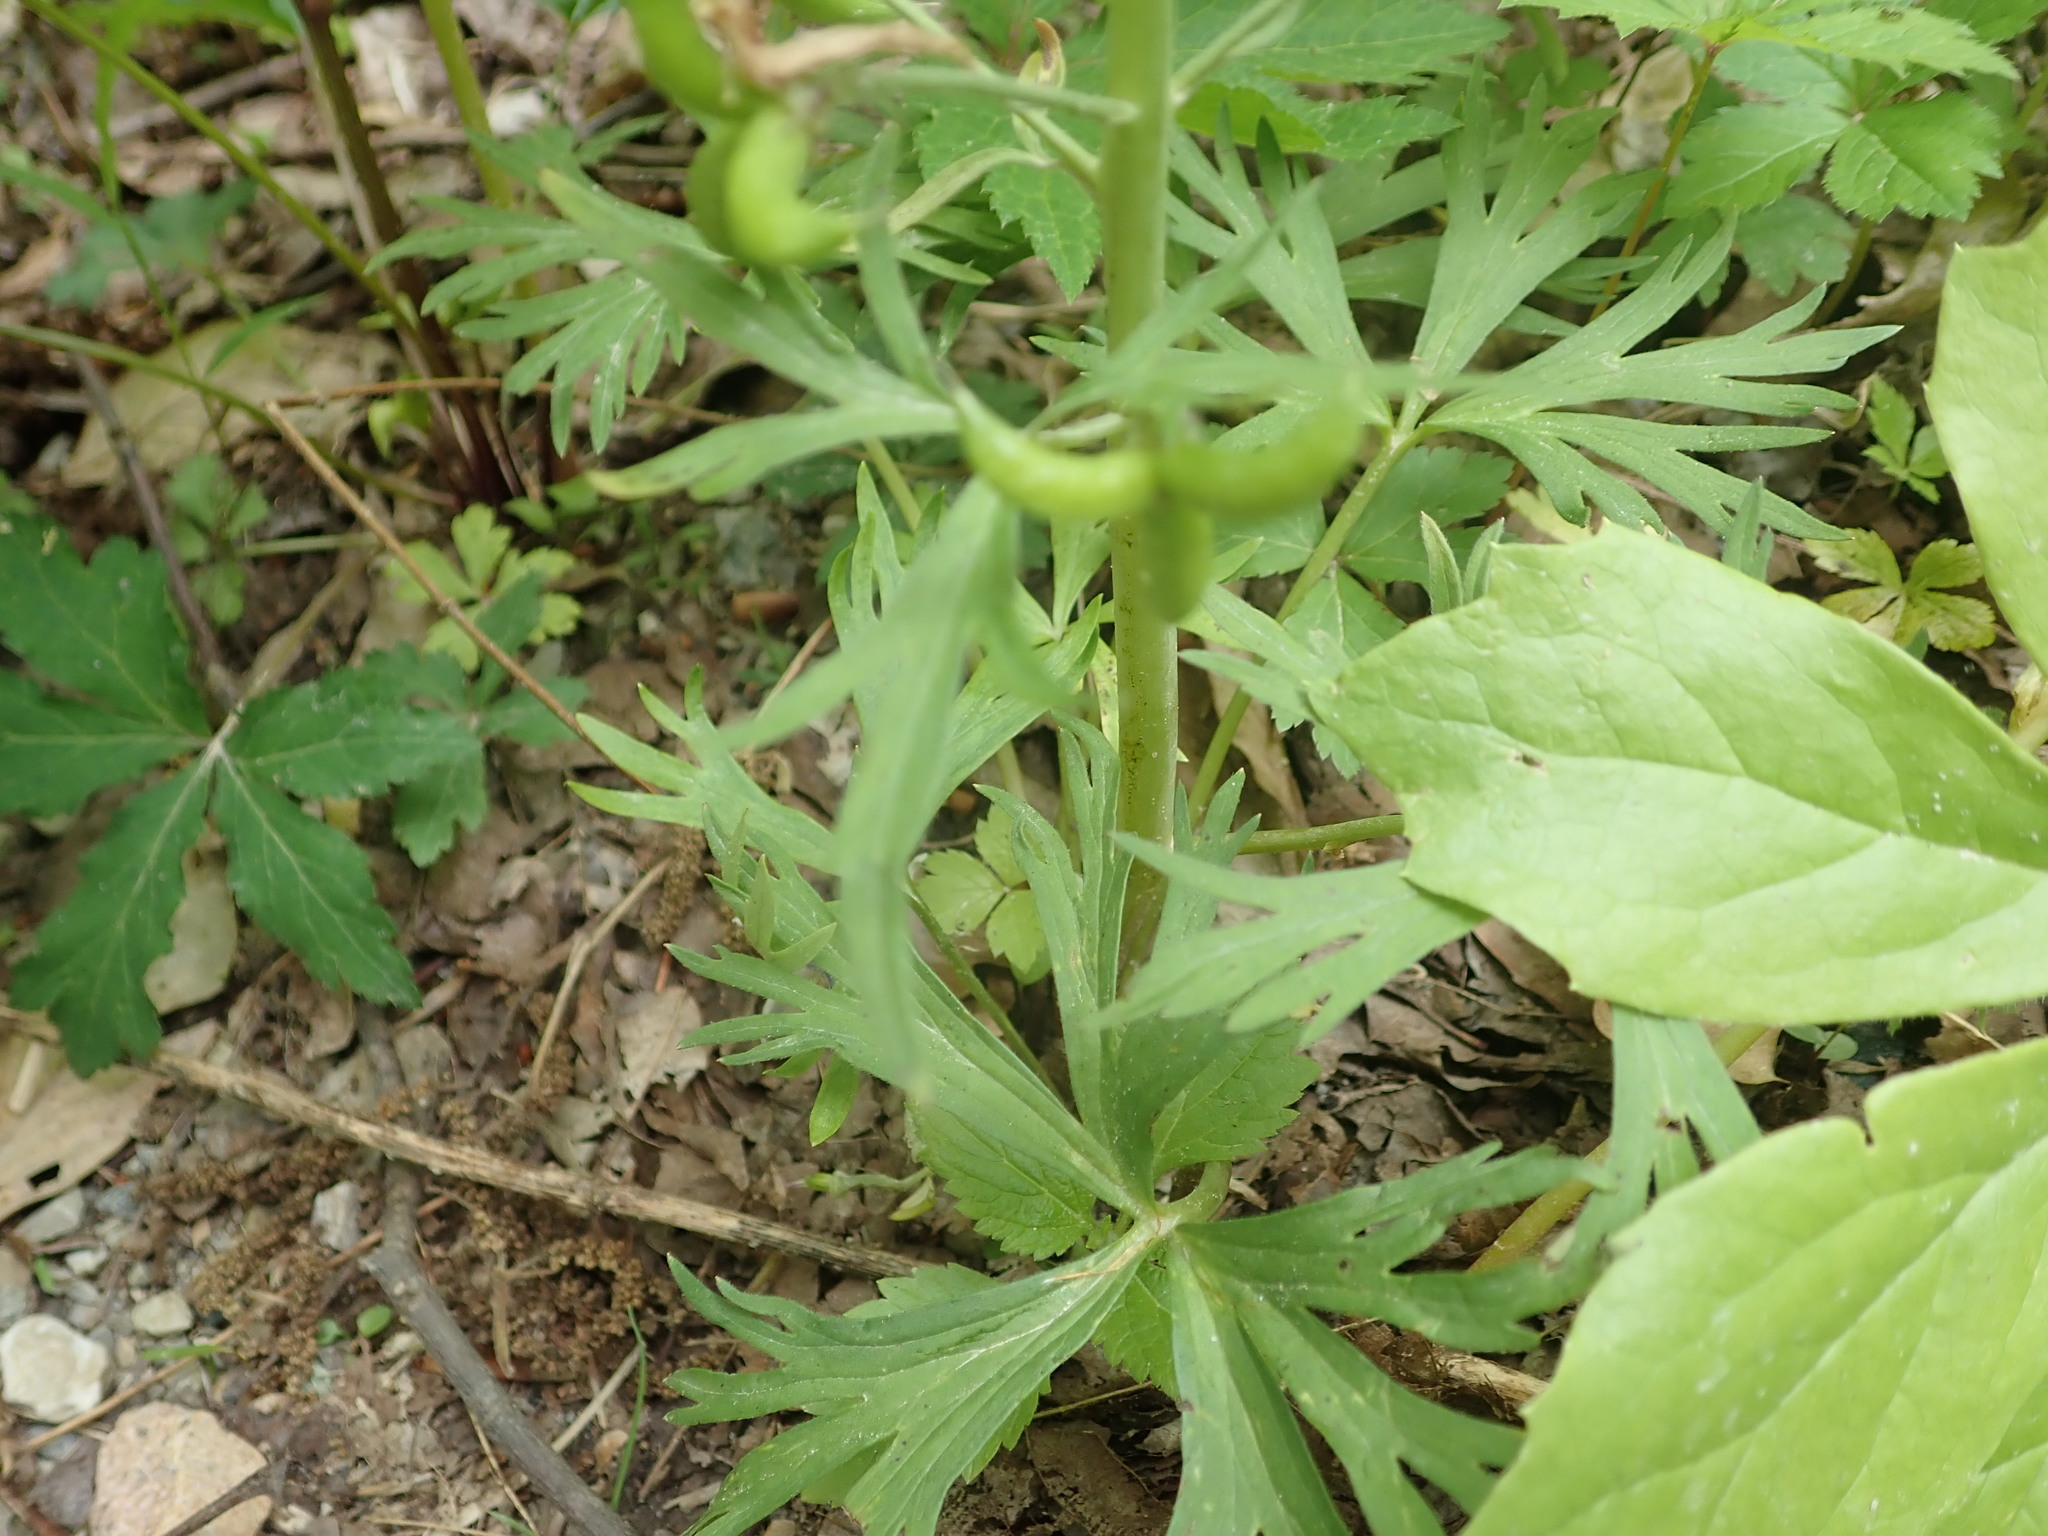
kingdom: Plantae
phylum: Tracheophyta
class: Magnoliopsida
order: Ranunculales
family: Ranunculaceae
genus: Delphinium
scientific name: Delphinium tricorne
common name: Dwarf larkspur
